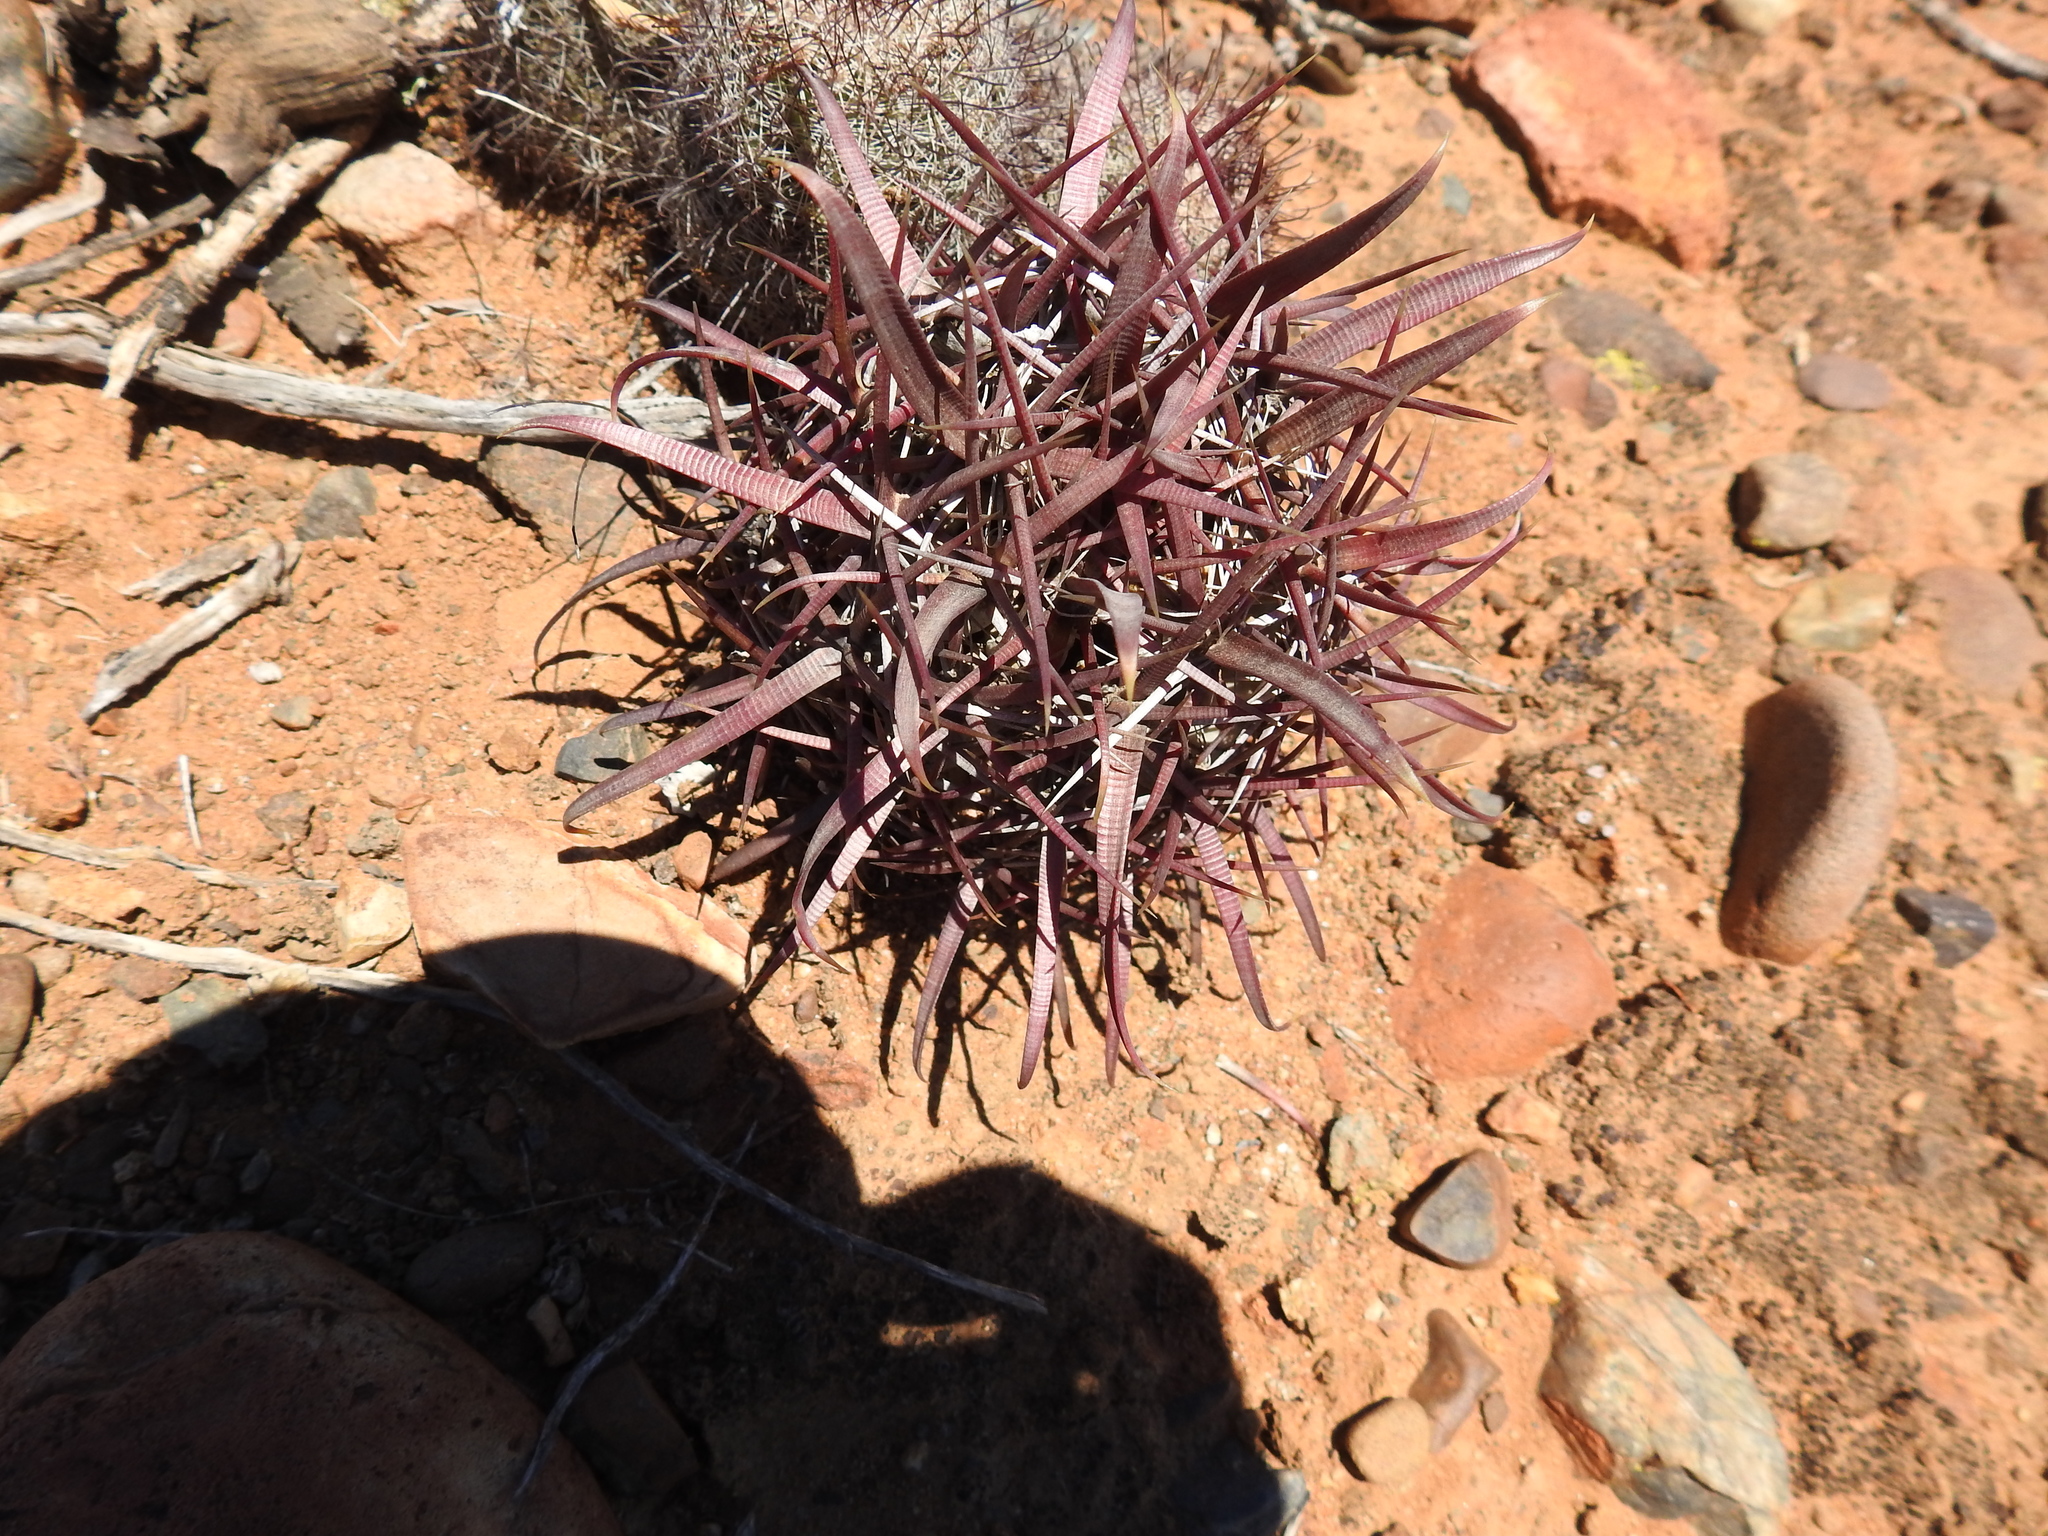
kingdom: Plantae
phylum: Tracheophyta
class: Magnoliopsida
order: Caryophyllales
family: Cactaceae
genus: Ferocactus
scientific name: Ferocactus gracilis
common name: Fire barrel cactus
